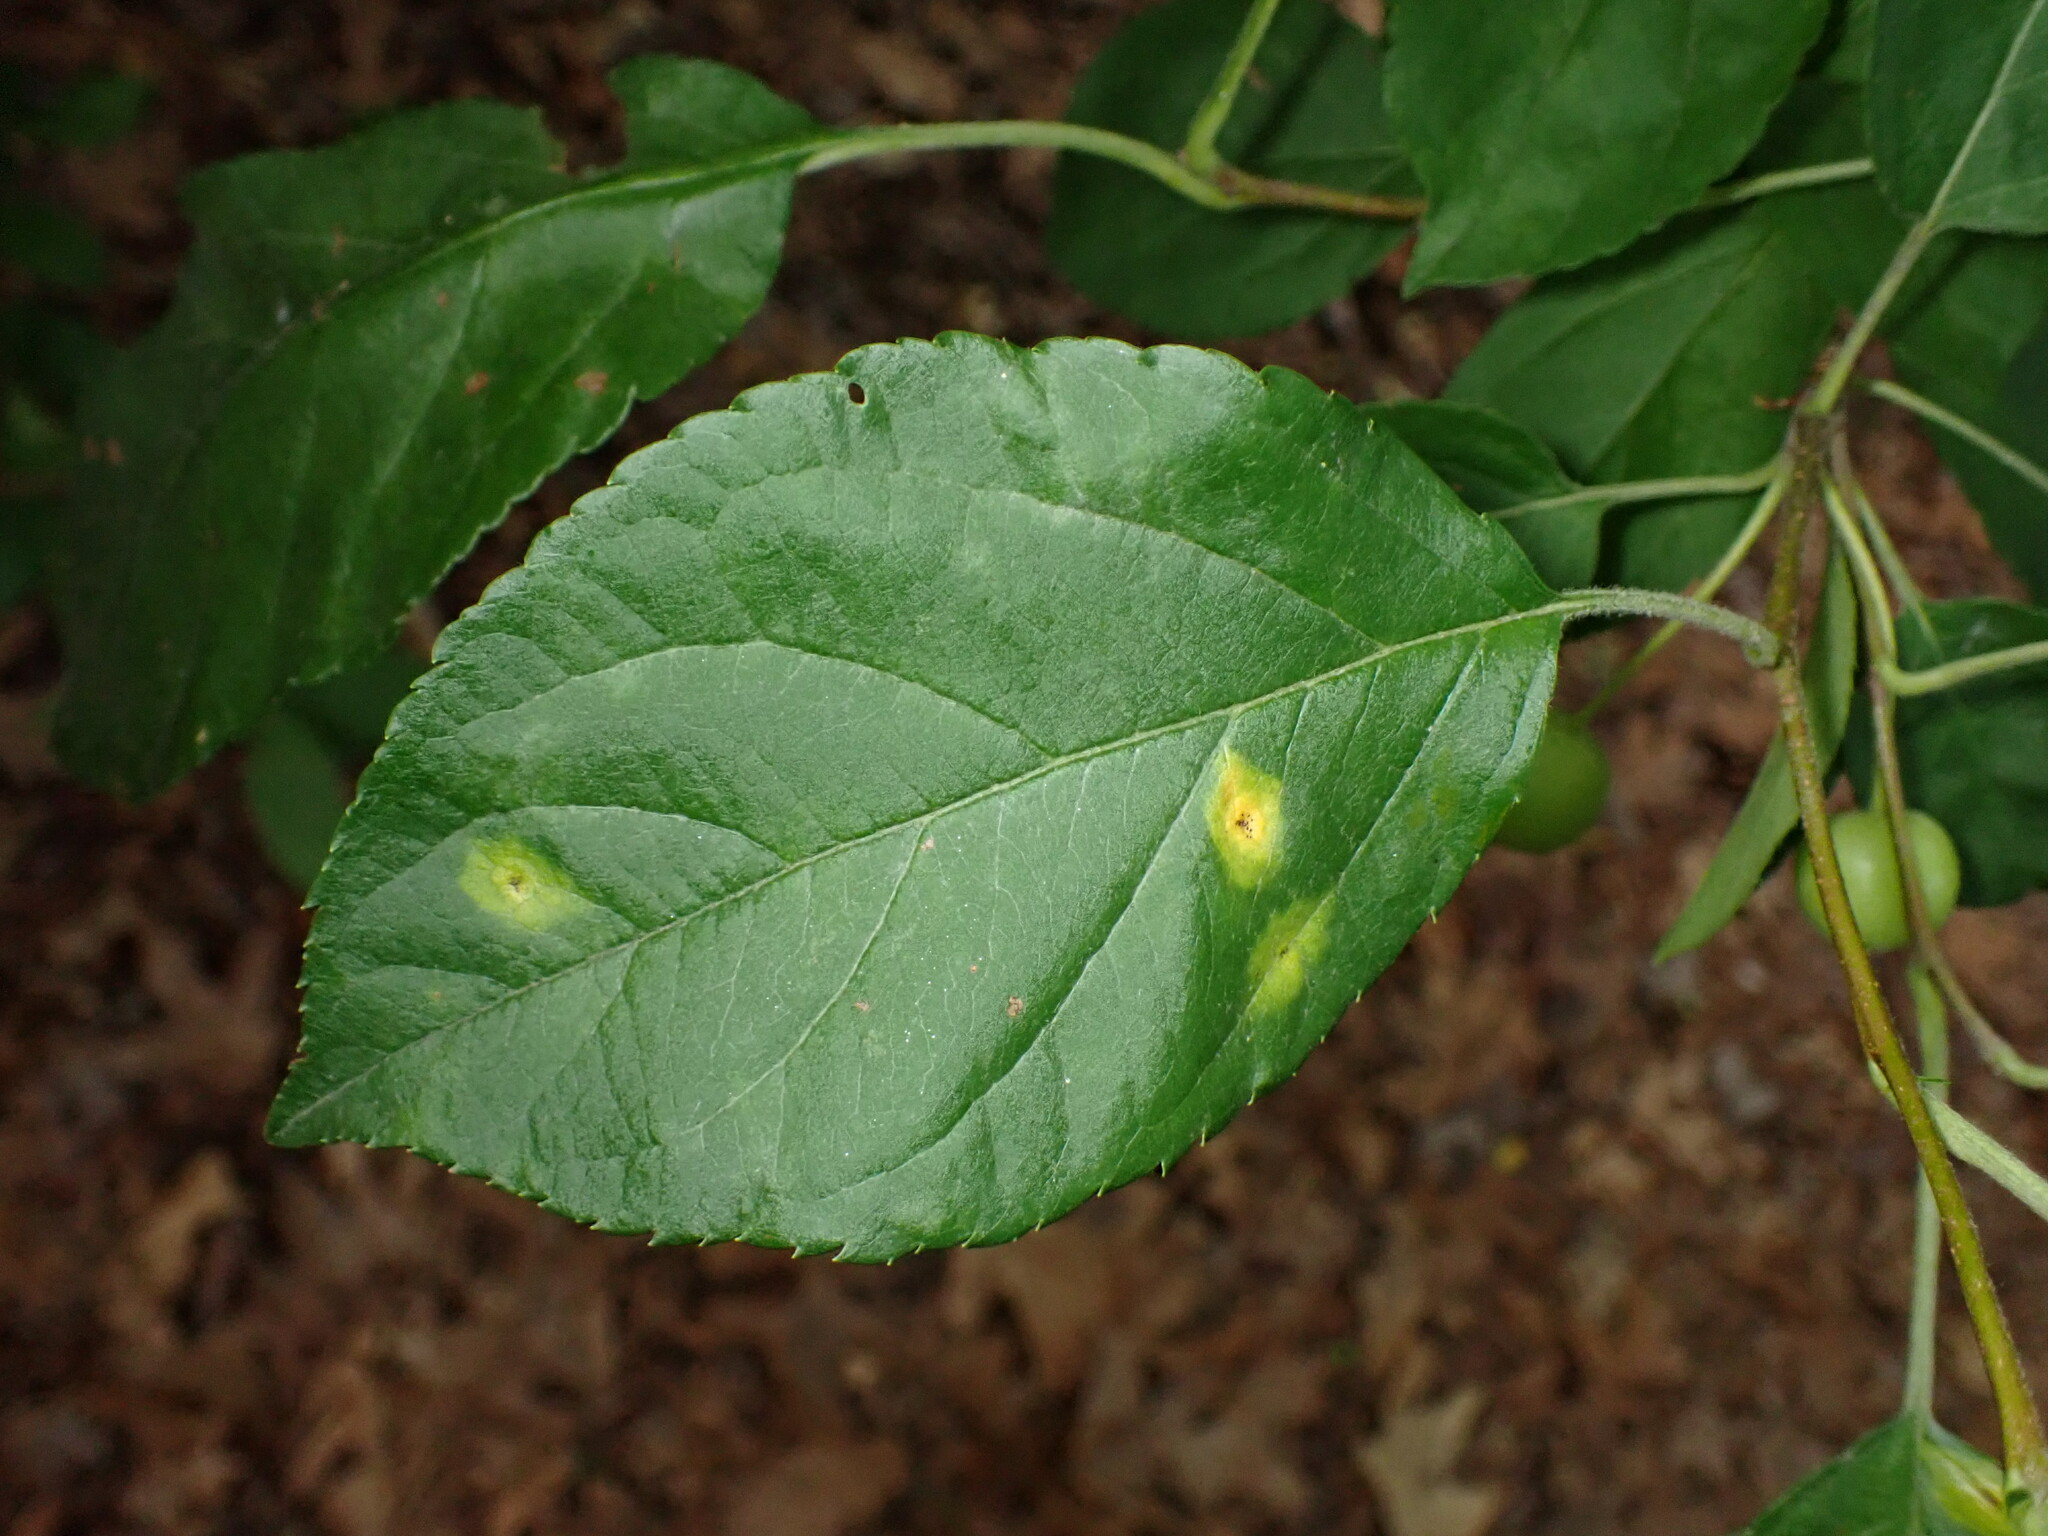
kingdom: Plantae
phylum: Tracheophyta
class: Magnoliopsida
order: Rosales
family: Rosaceae
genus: Malus
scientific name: Malus coronaria
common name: Sweet crab apple
